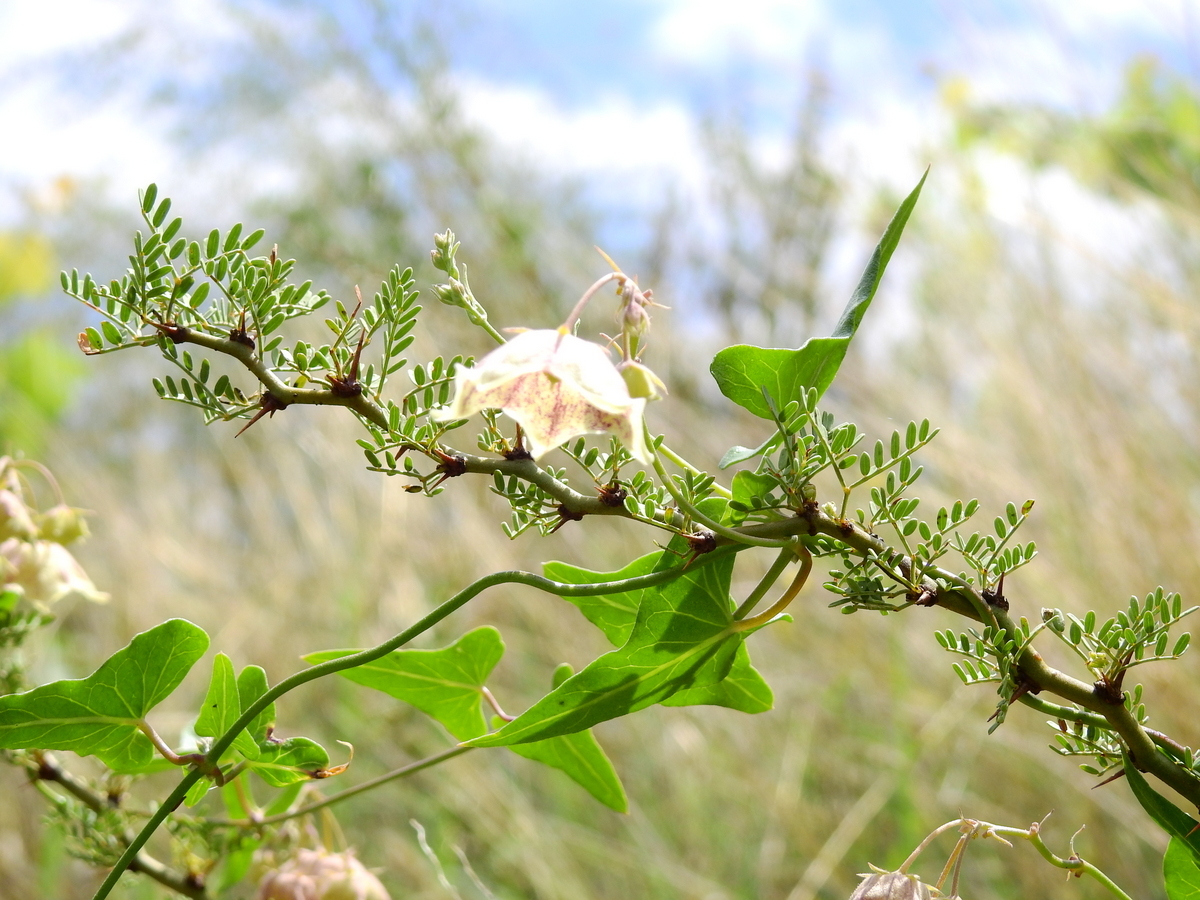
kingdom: Plantae
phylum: Tracheophyta
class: Magnoliopsida
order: Gentianales
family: Apocynaceae
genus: Philibertia
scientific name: Philibertia gilliesii
